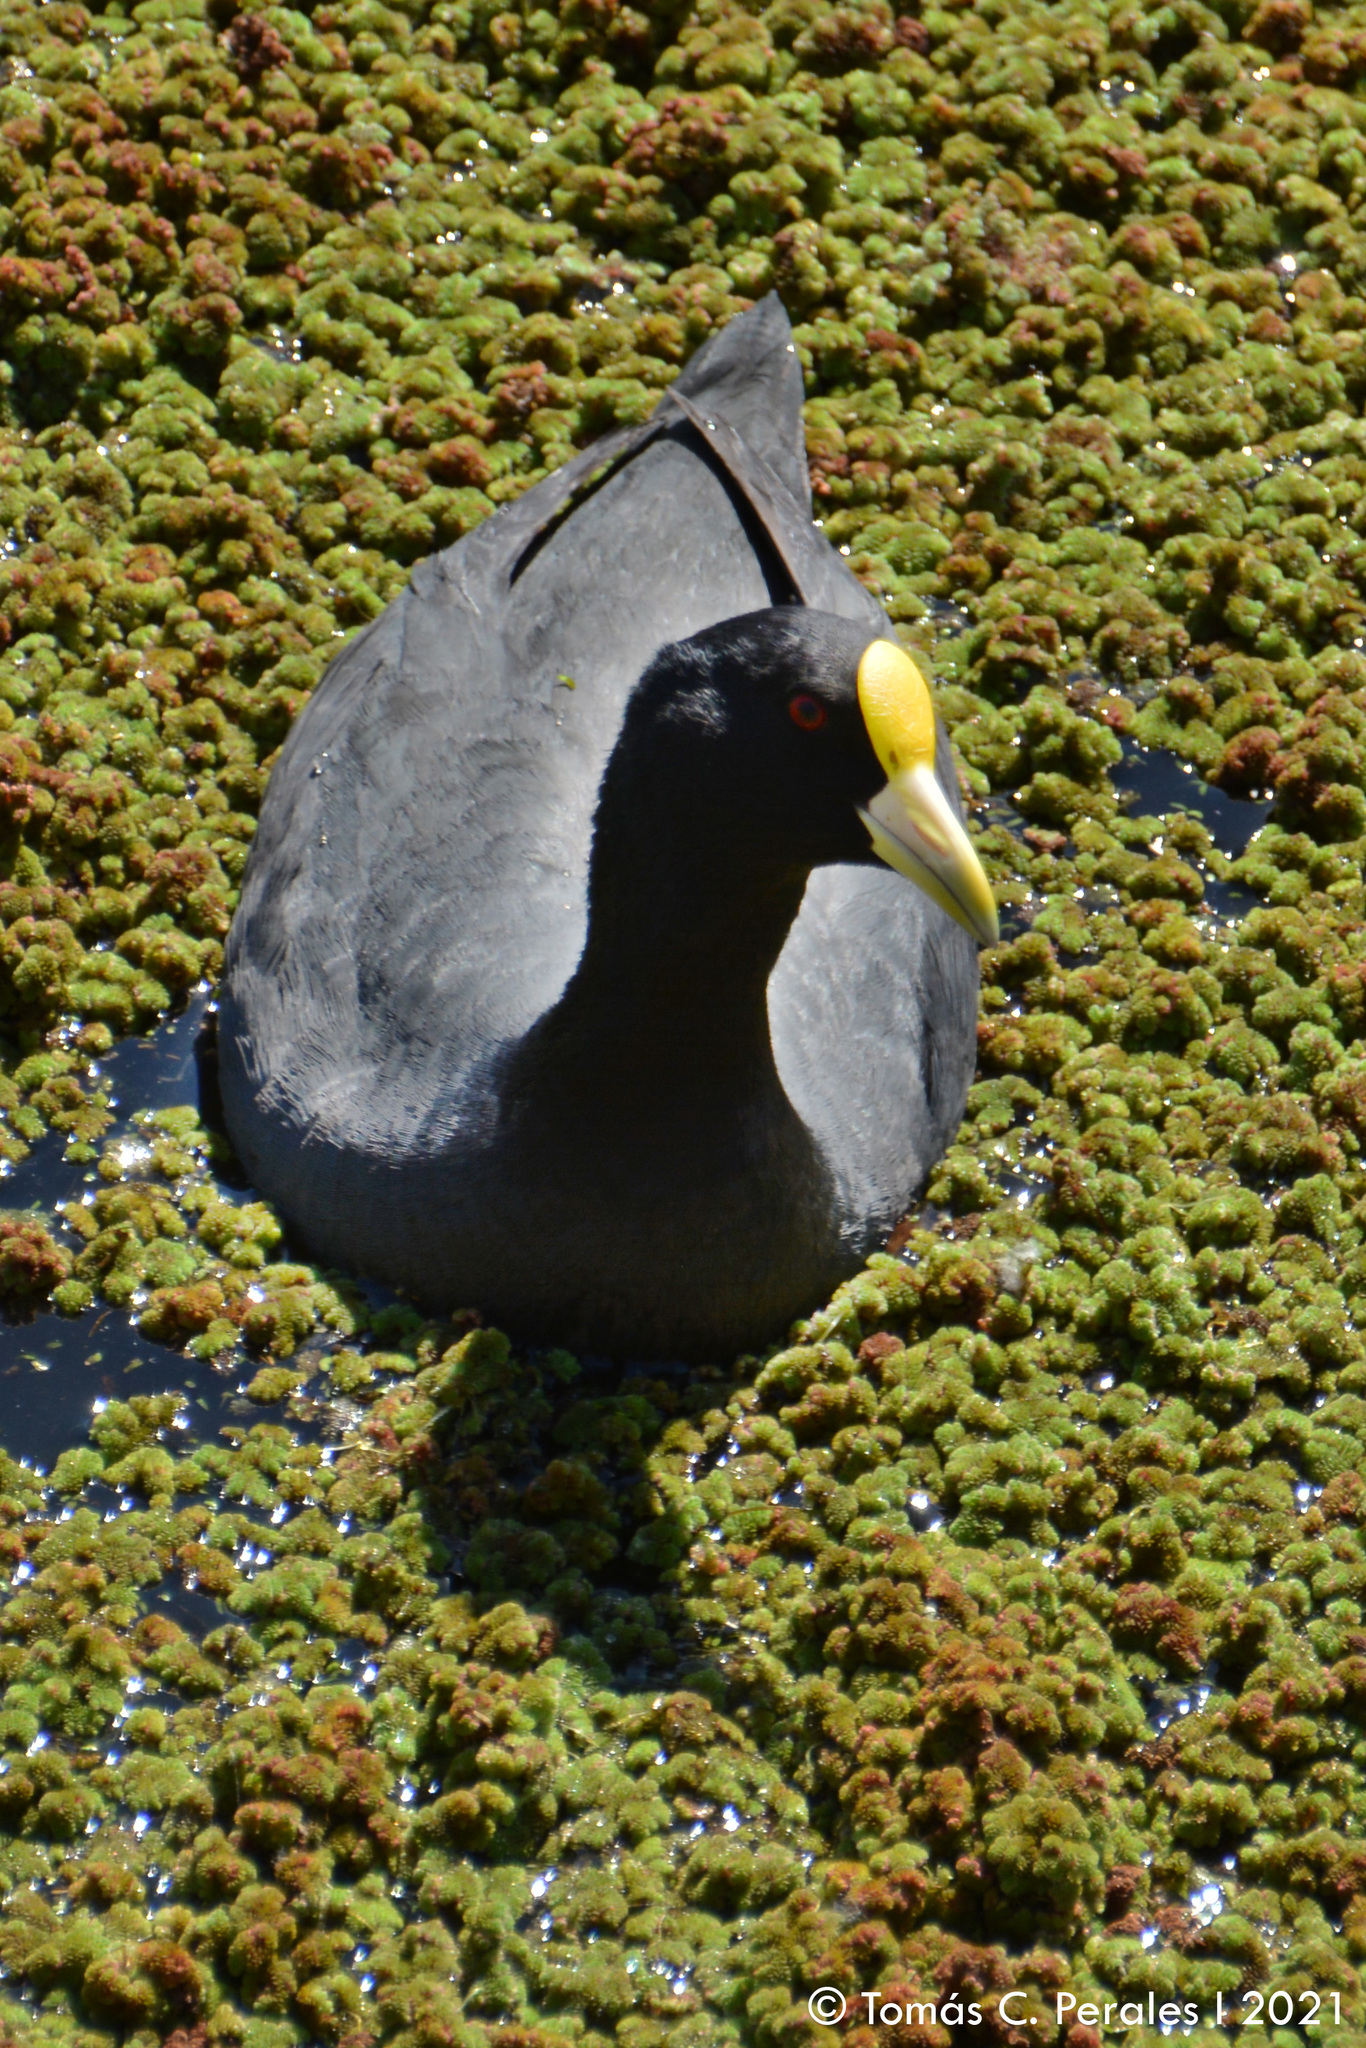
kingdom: Animalia
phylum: Chordata
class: Aves
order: Gruiformes
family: Rallidae
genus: Fulica
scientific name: Fulica leucoptera
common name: White-winged coot
